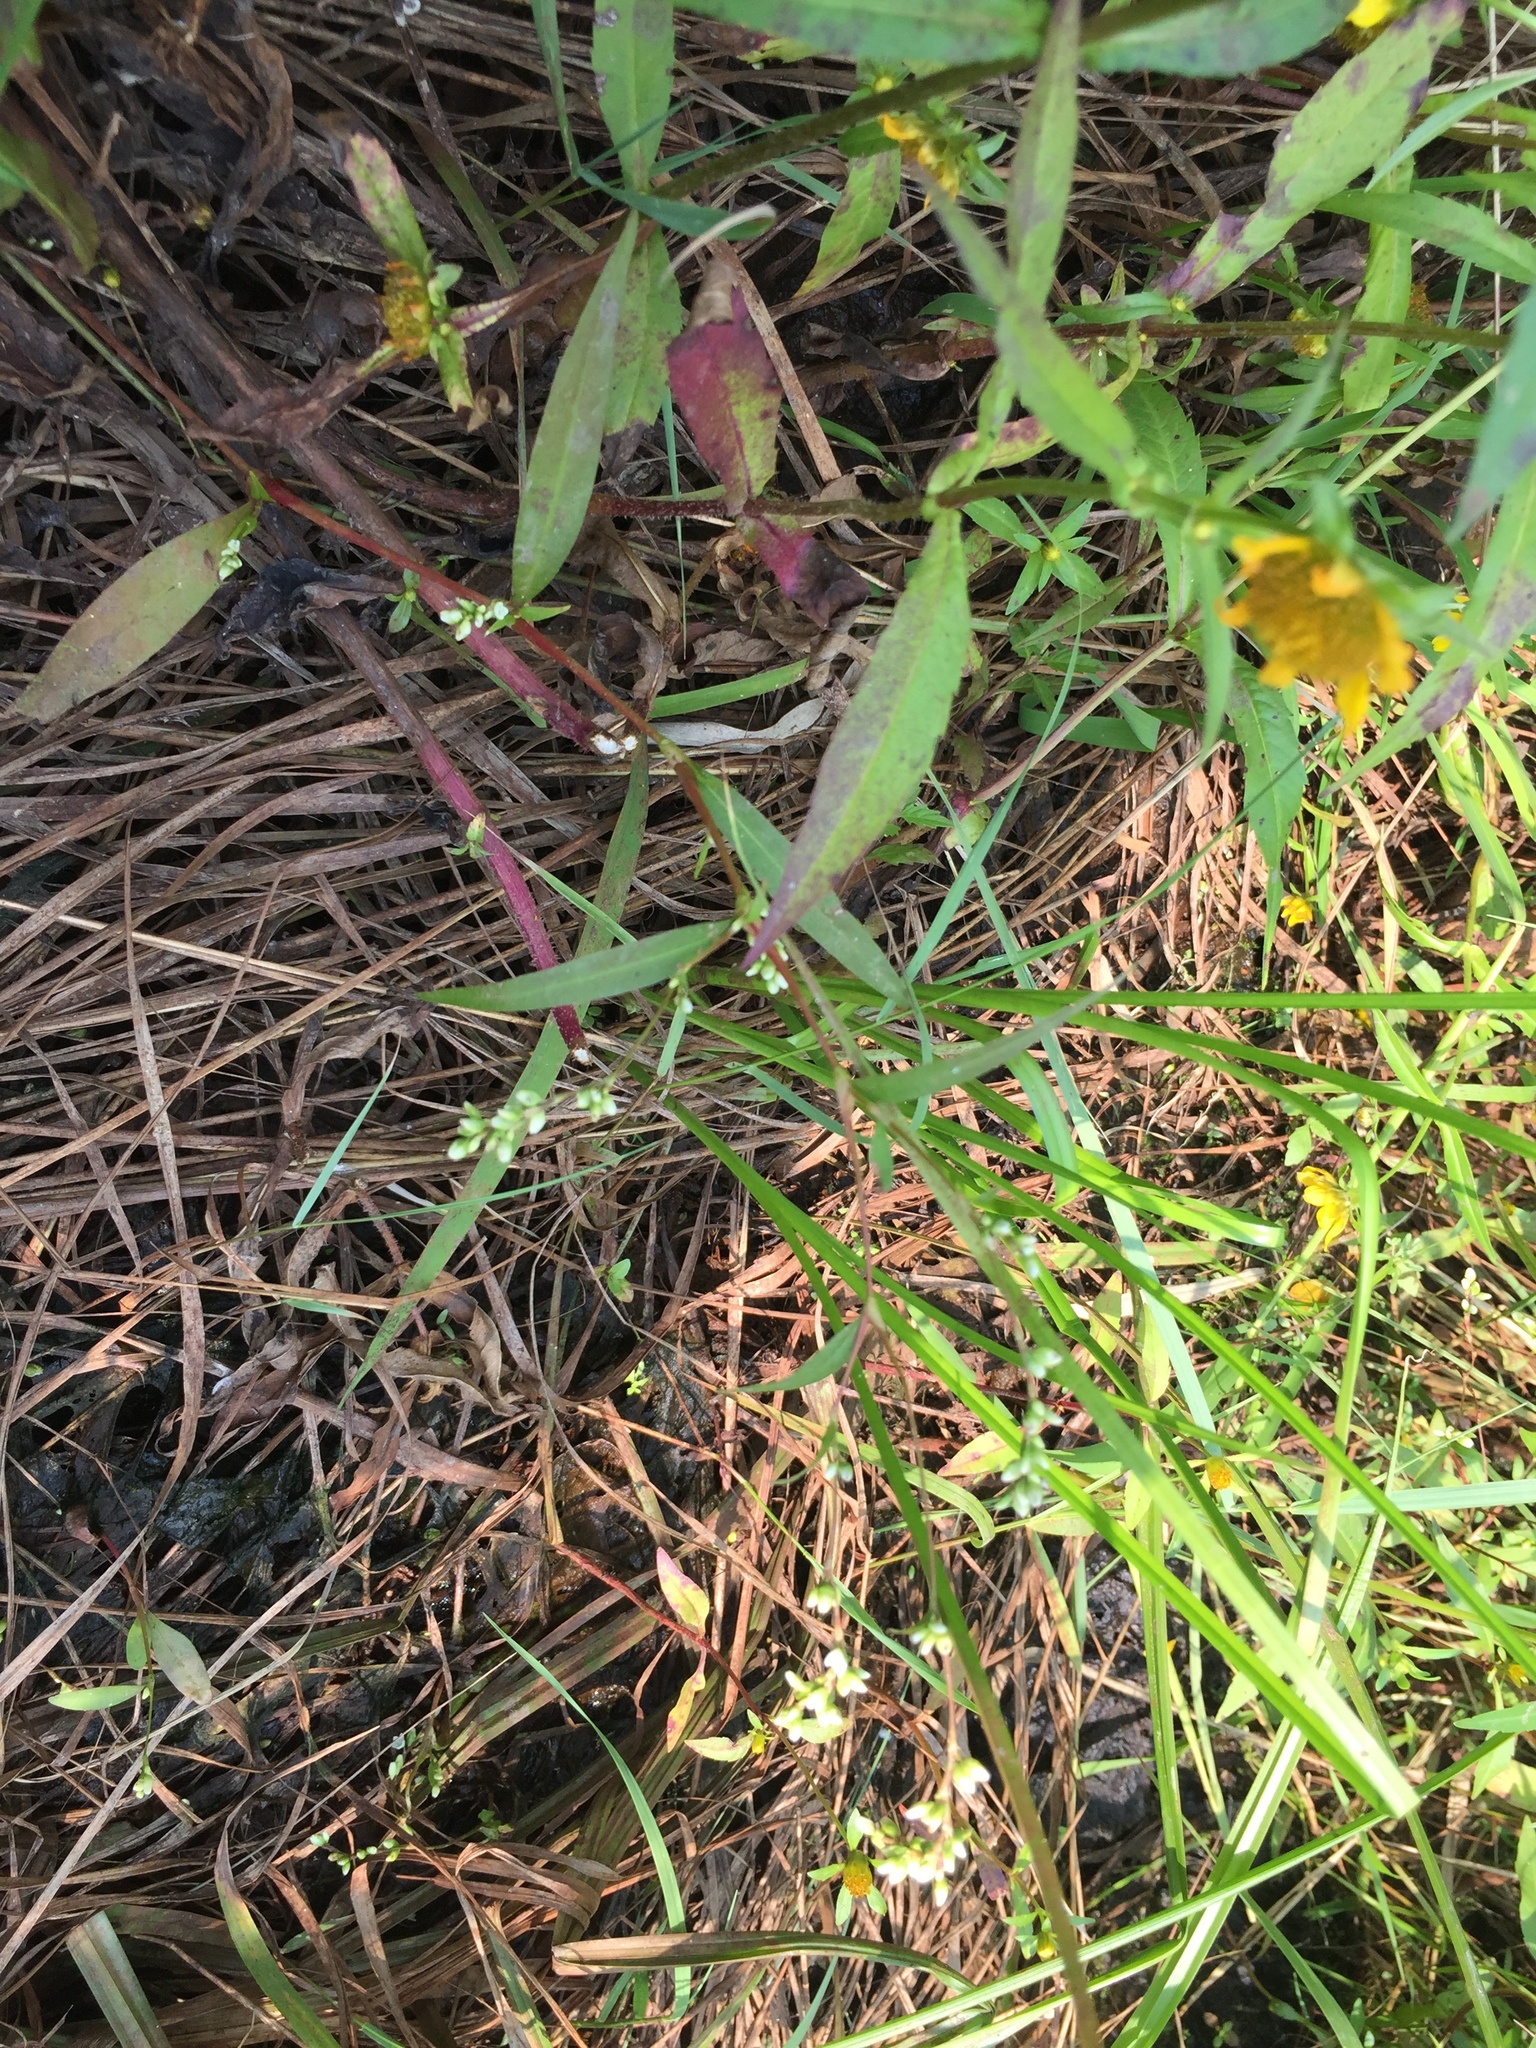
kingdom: Plantae
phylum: Tracheophyta
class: Magnoliopsida
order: Caryophyllales
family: Polygonaceae
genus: Persicaria
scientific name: Persicaria punctata
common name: Dotted smartweed
